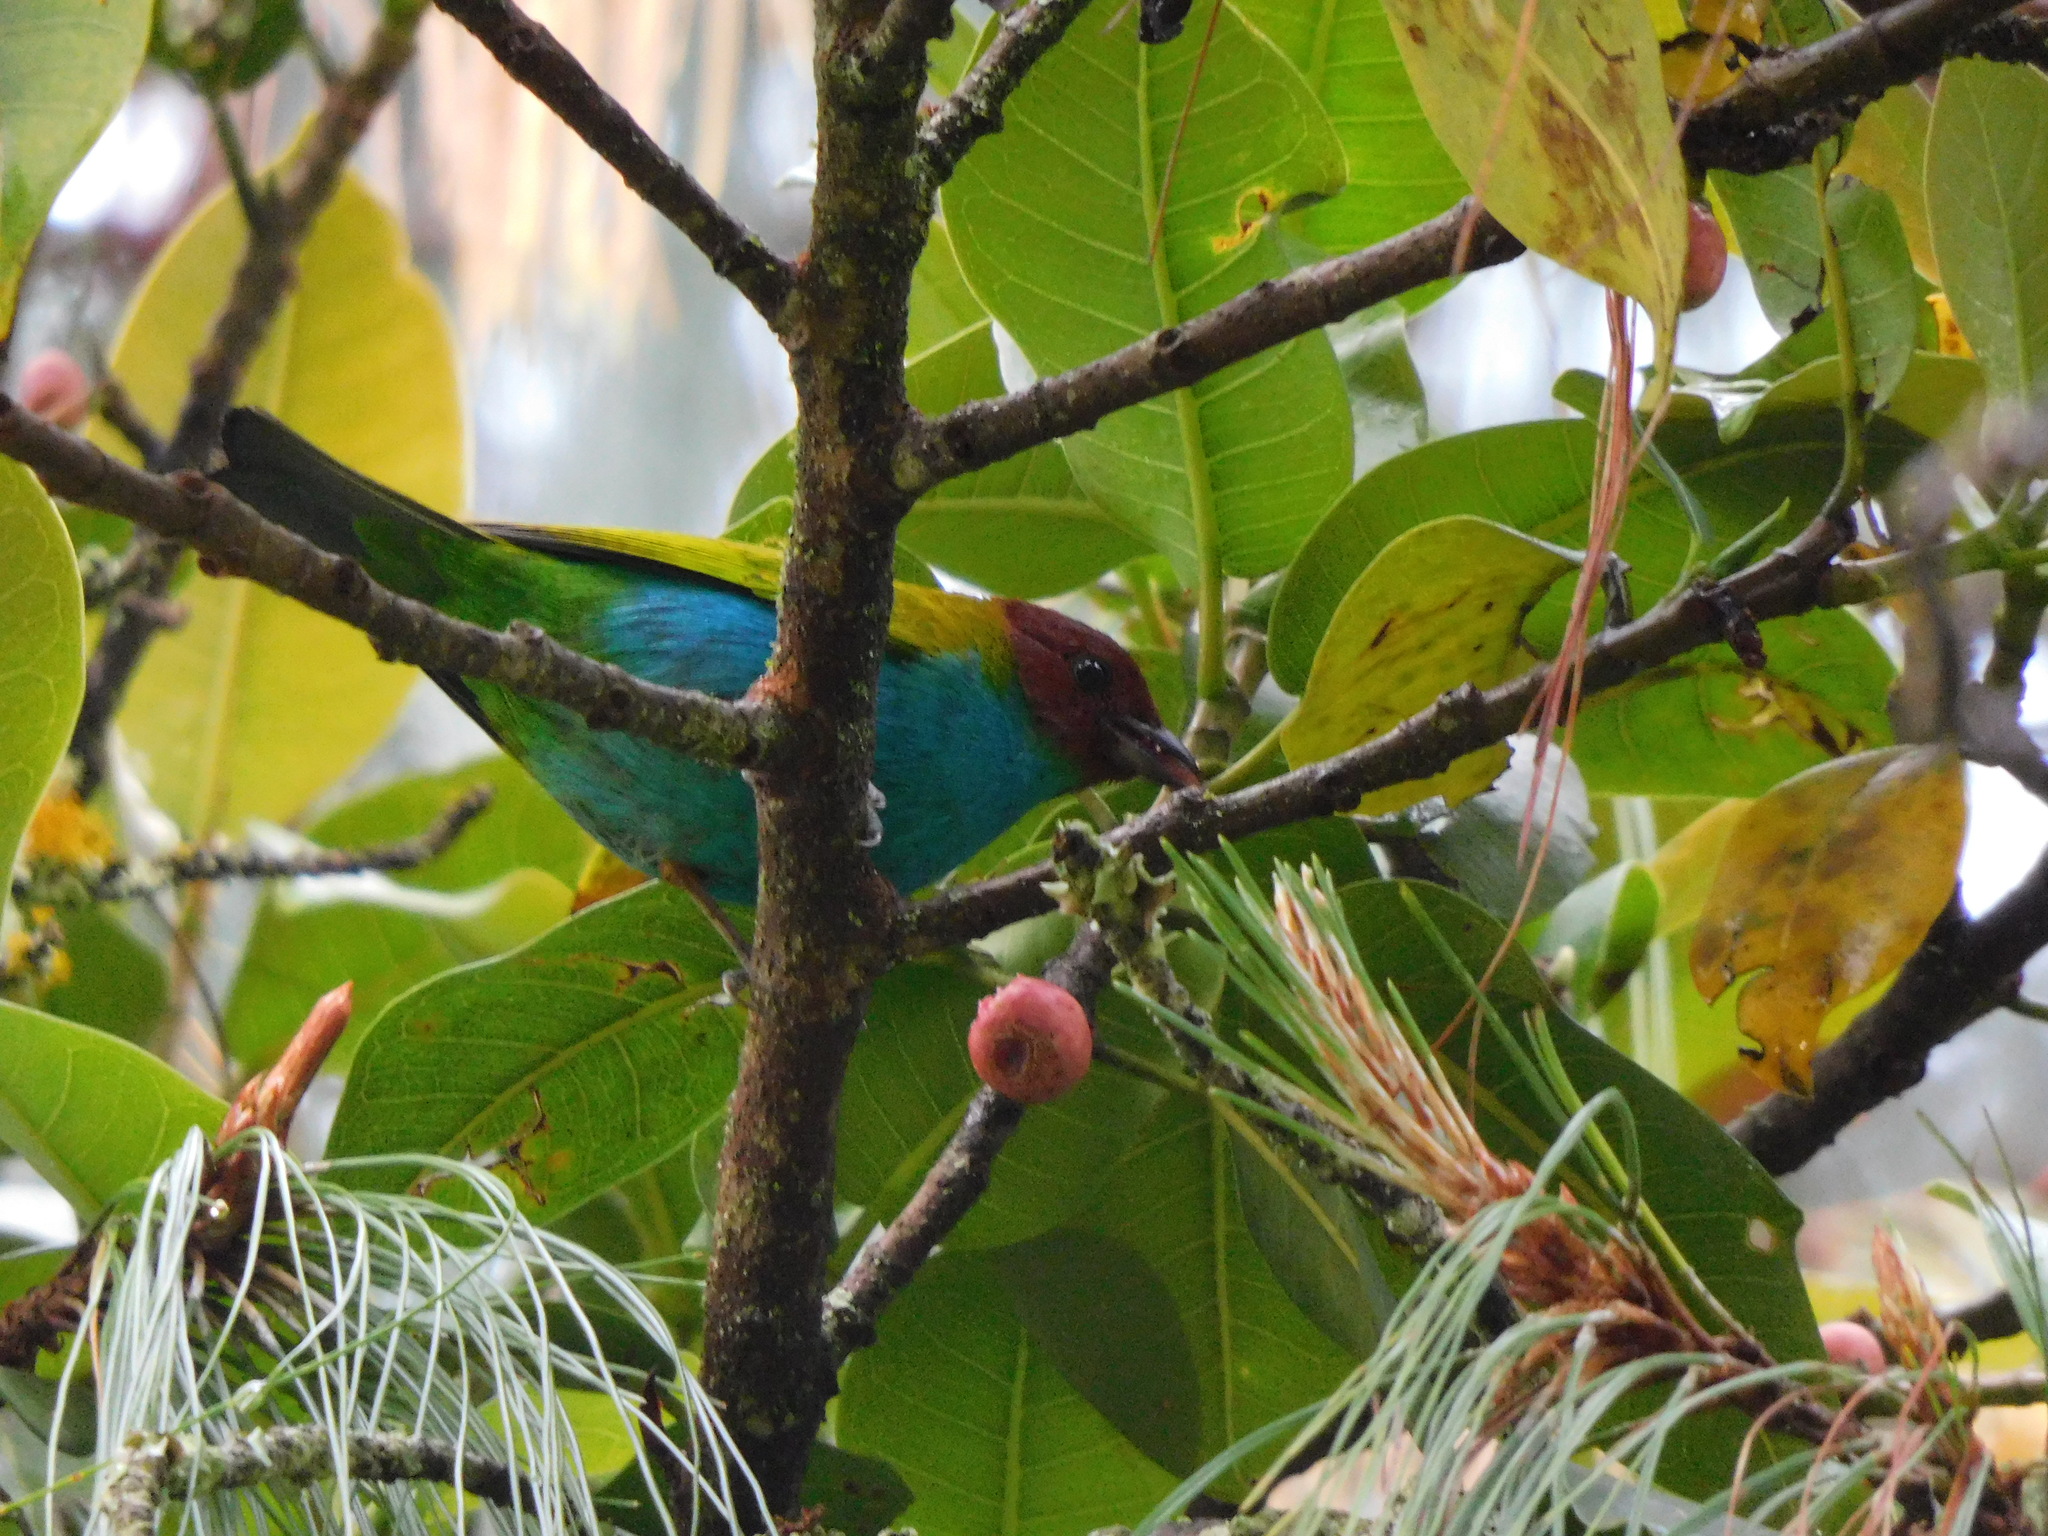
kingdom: Animalia
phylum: Chordata
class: Aves
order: Passeriformes
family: Thraupidae
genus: Tangara
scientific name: Tangara gyrola
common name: Bay-headed tanager
